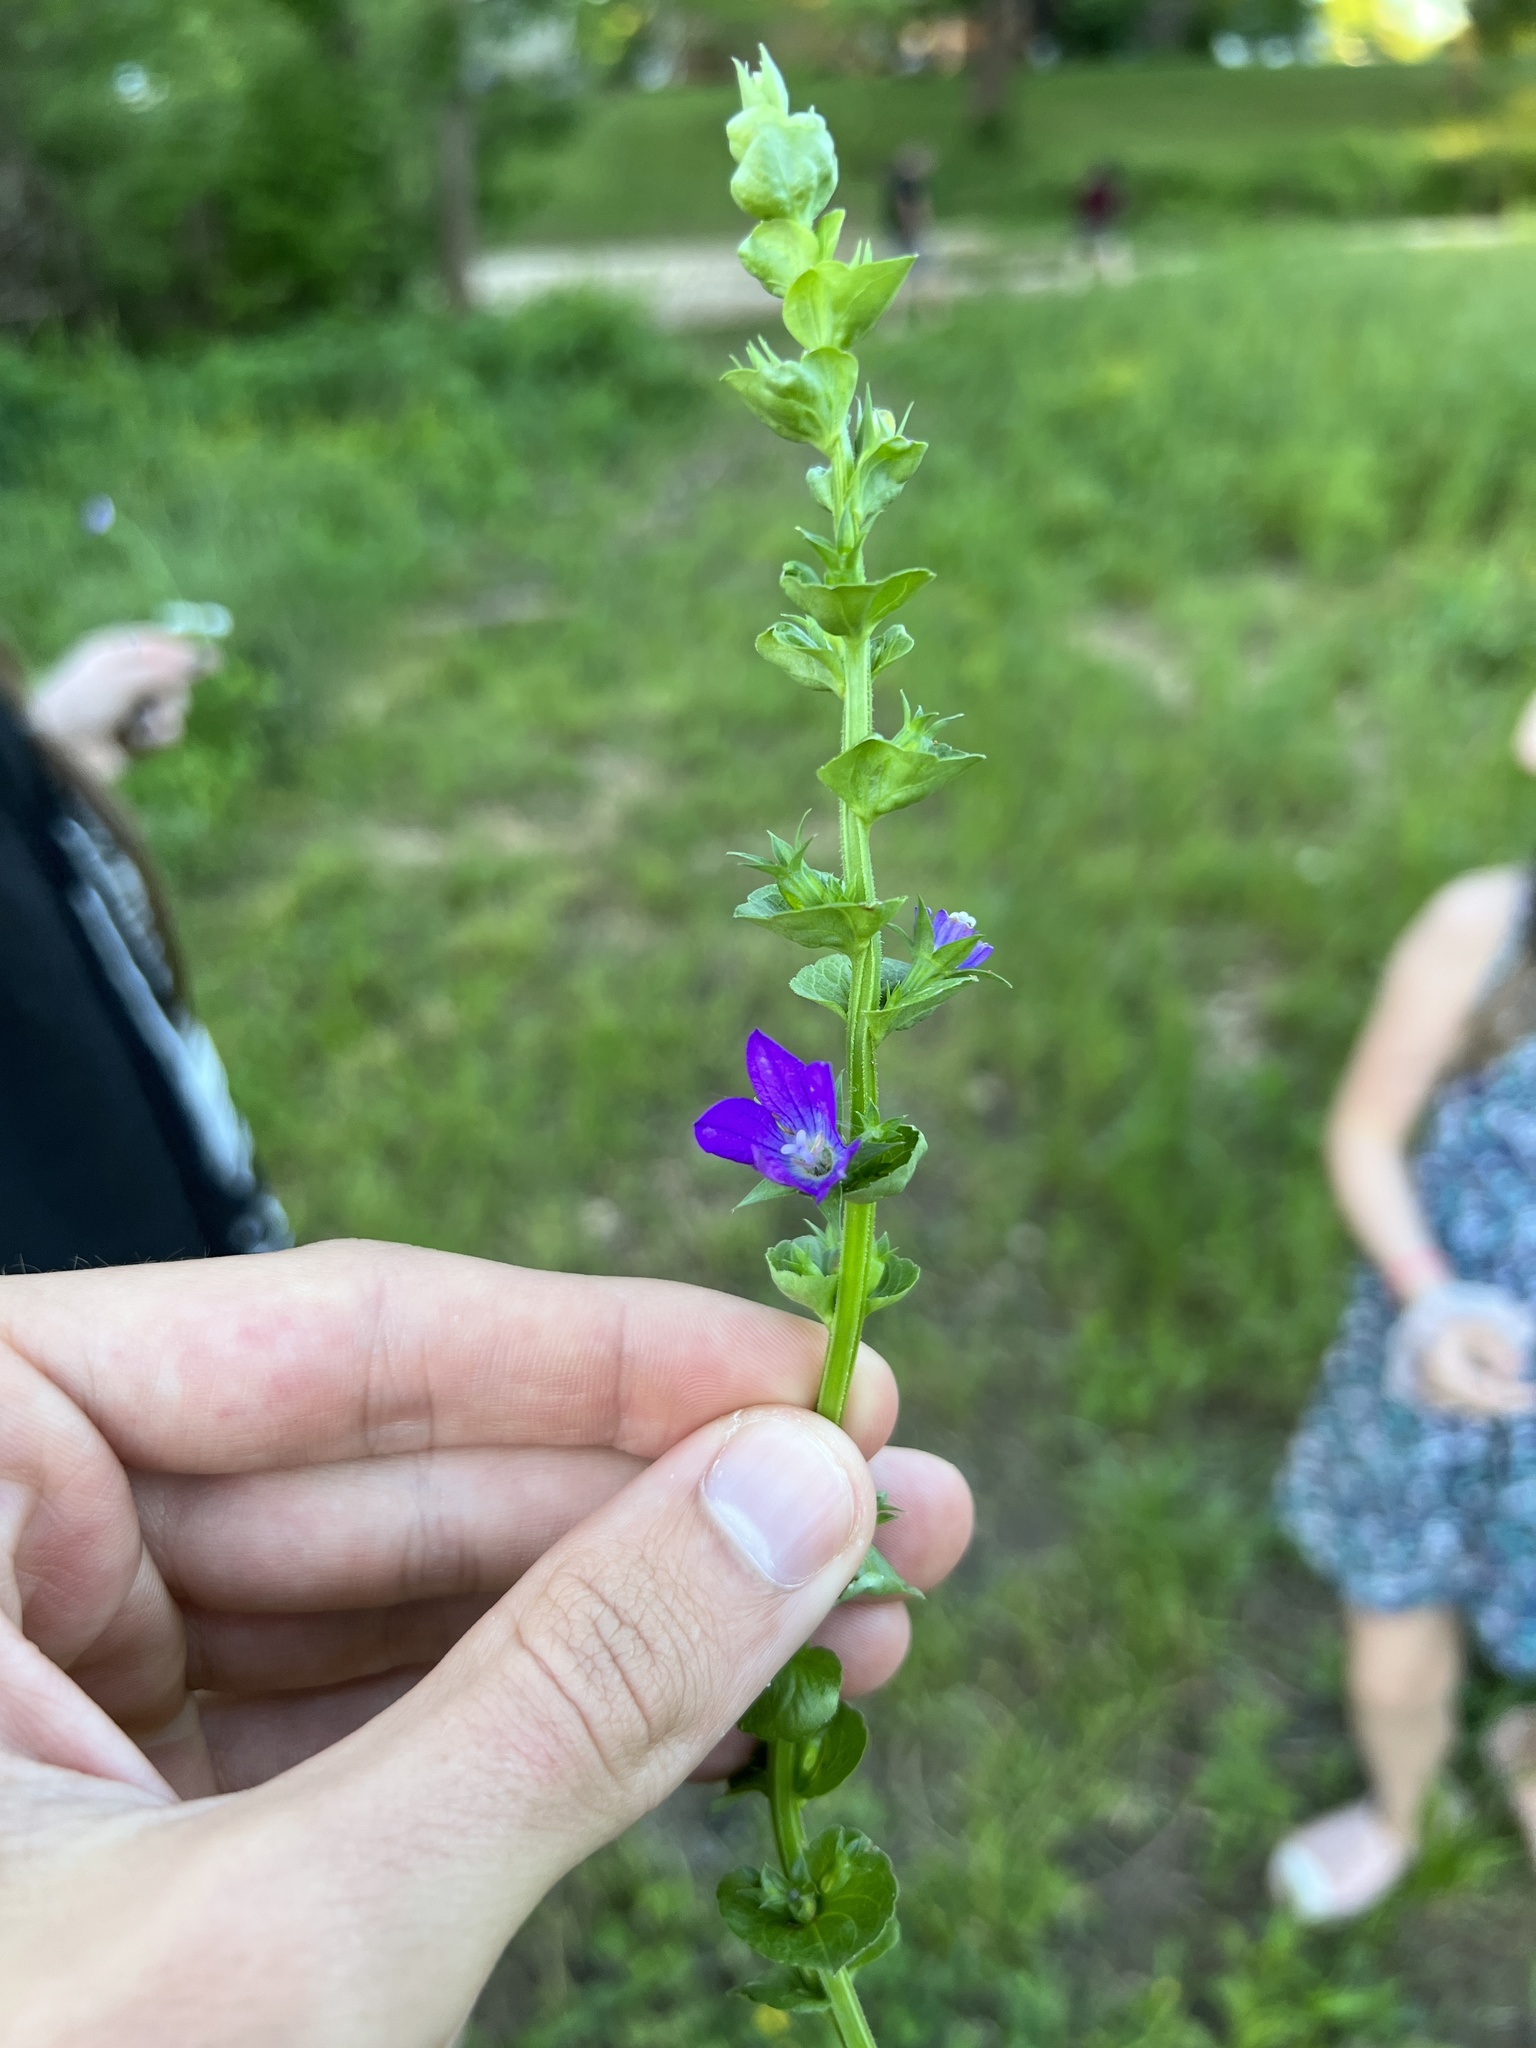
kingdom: Plantae
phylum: Tracheophyta
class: Magnoliopsida
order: Asterales
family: Campanulaceae
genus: Triodanis
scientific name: Triodanis perfoliata
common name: Clasping venus' looking-glass
